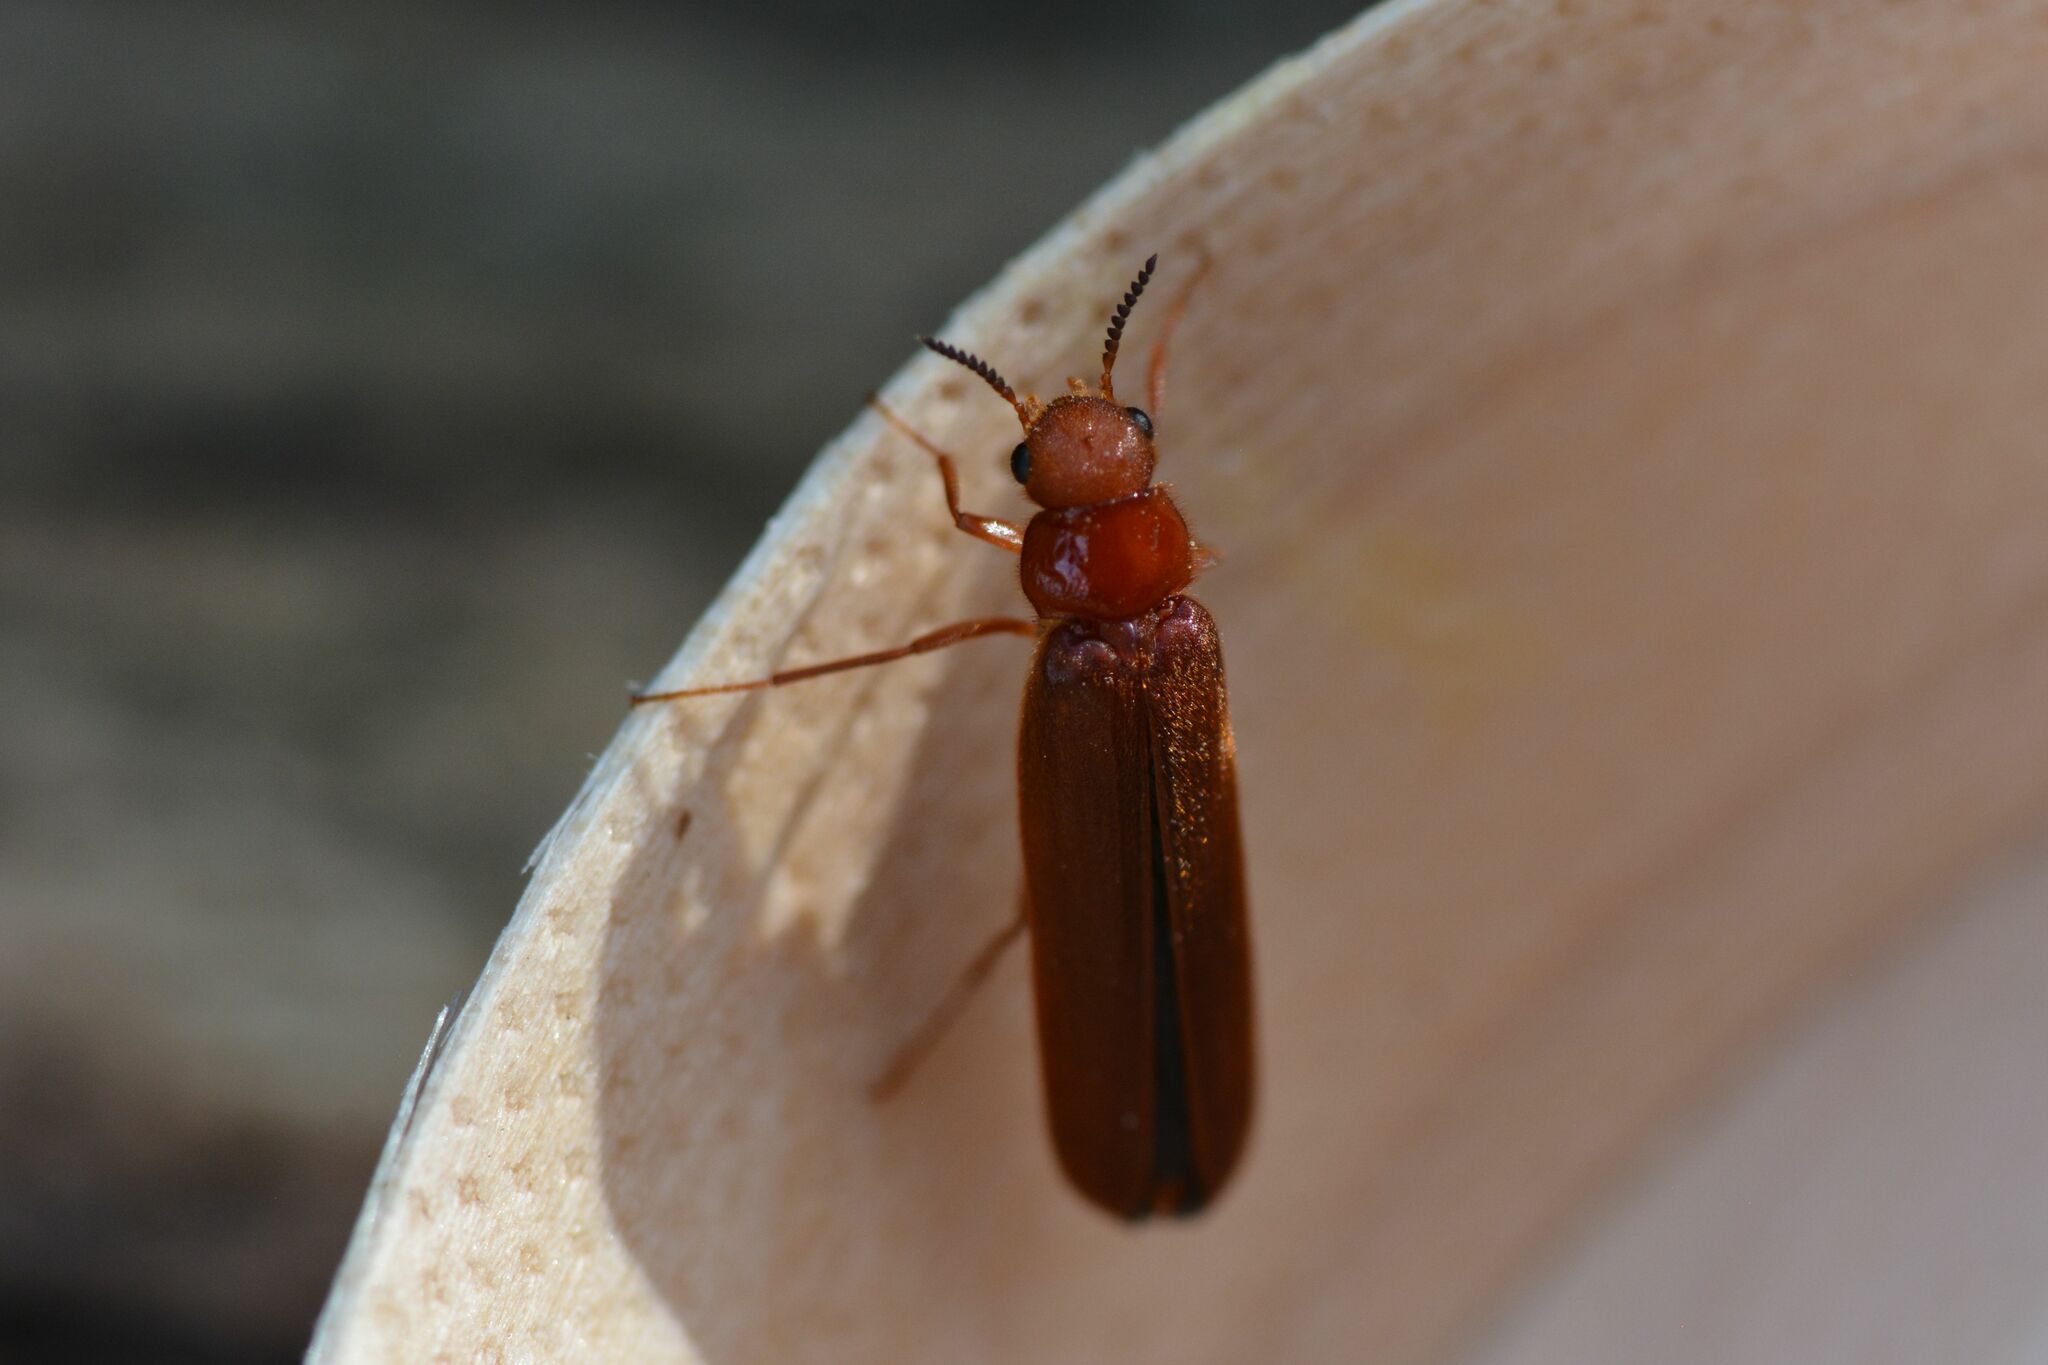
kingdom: Animalia
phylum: Arthropoda
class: Insecta
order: Coleoptera
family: Lymexylidae
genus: Hylecoetus
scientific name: Hylecoetus dermestoides
